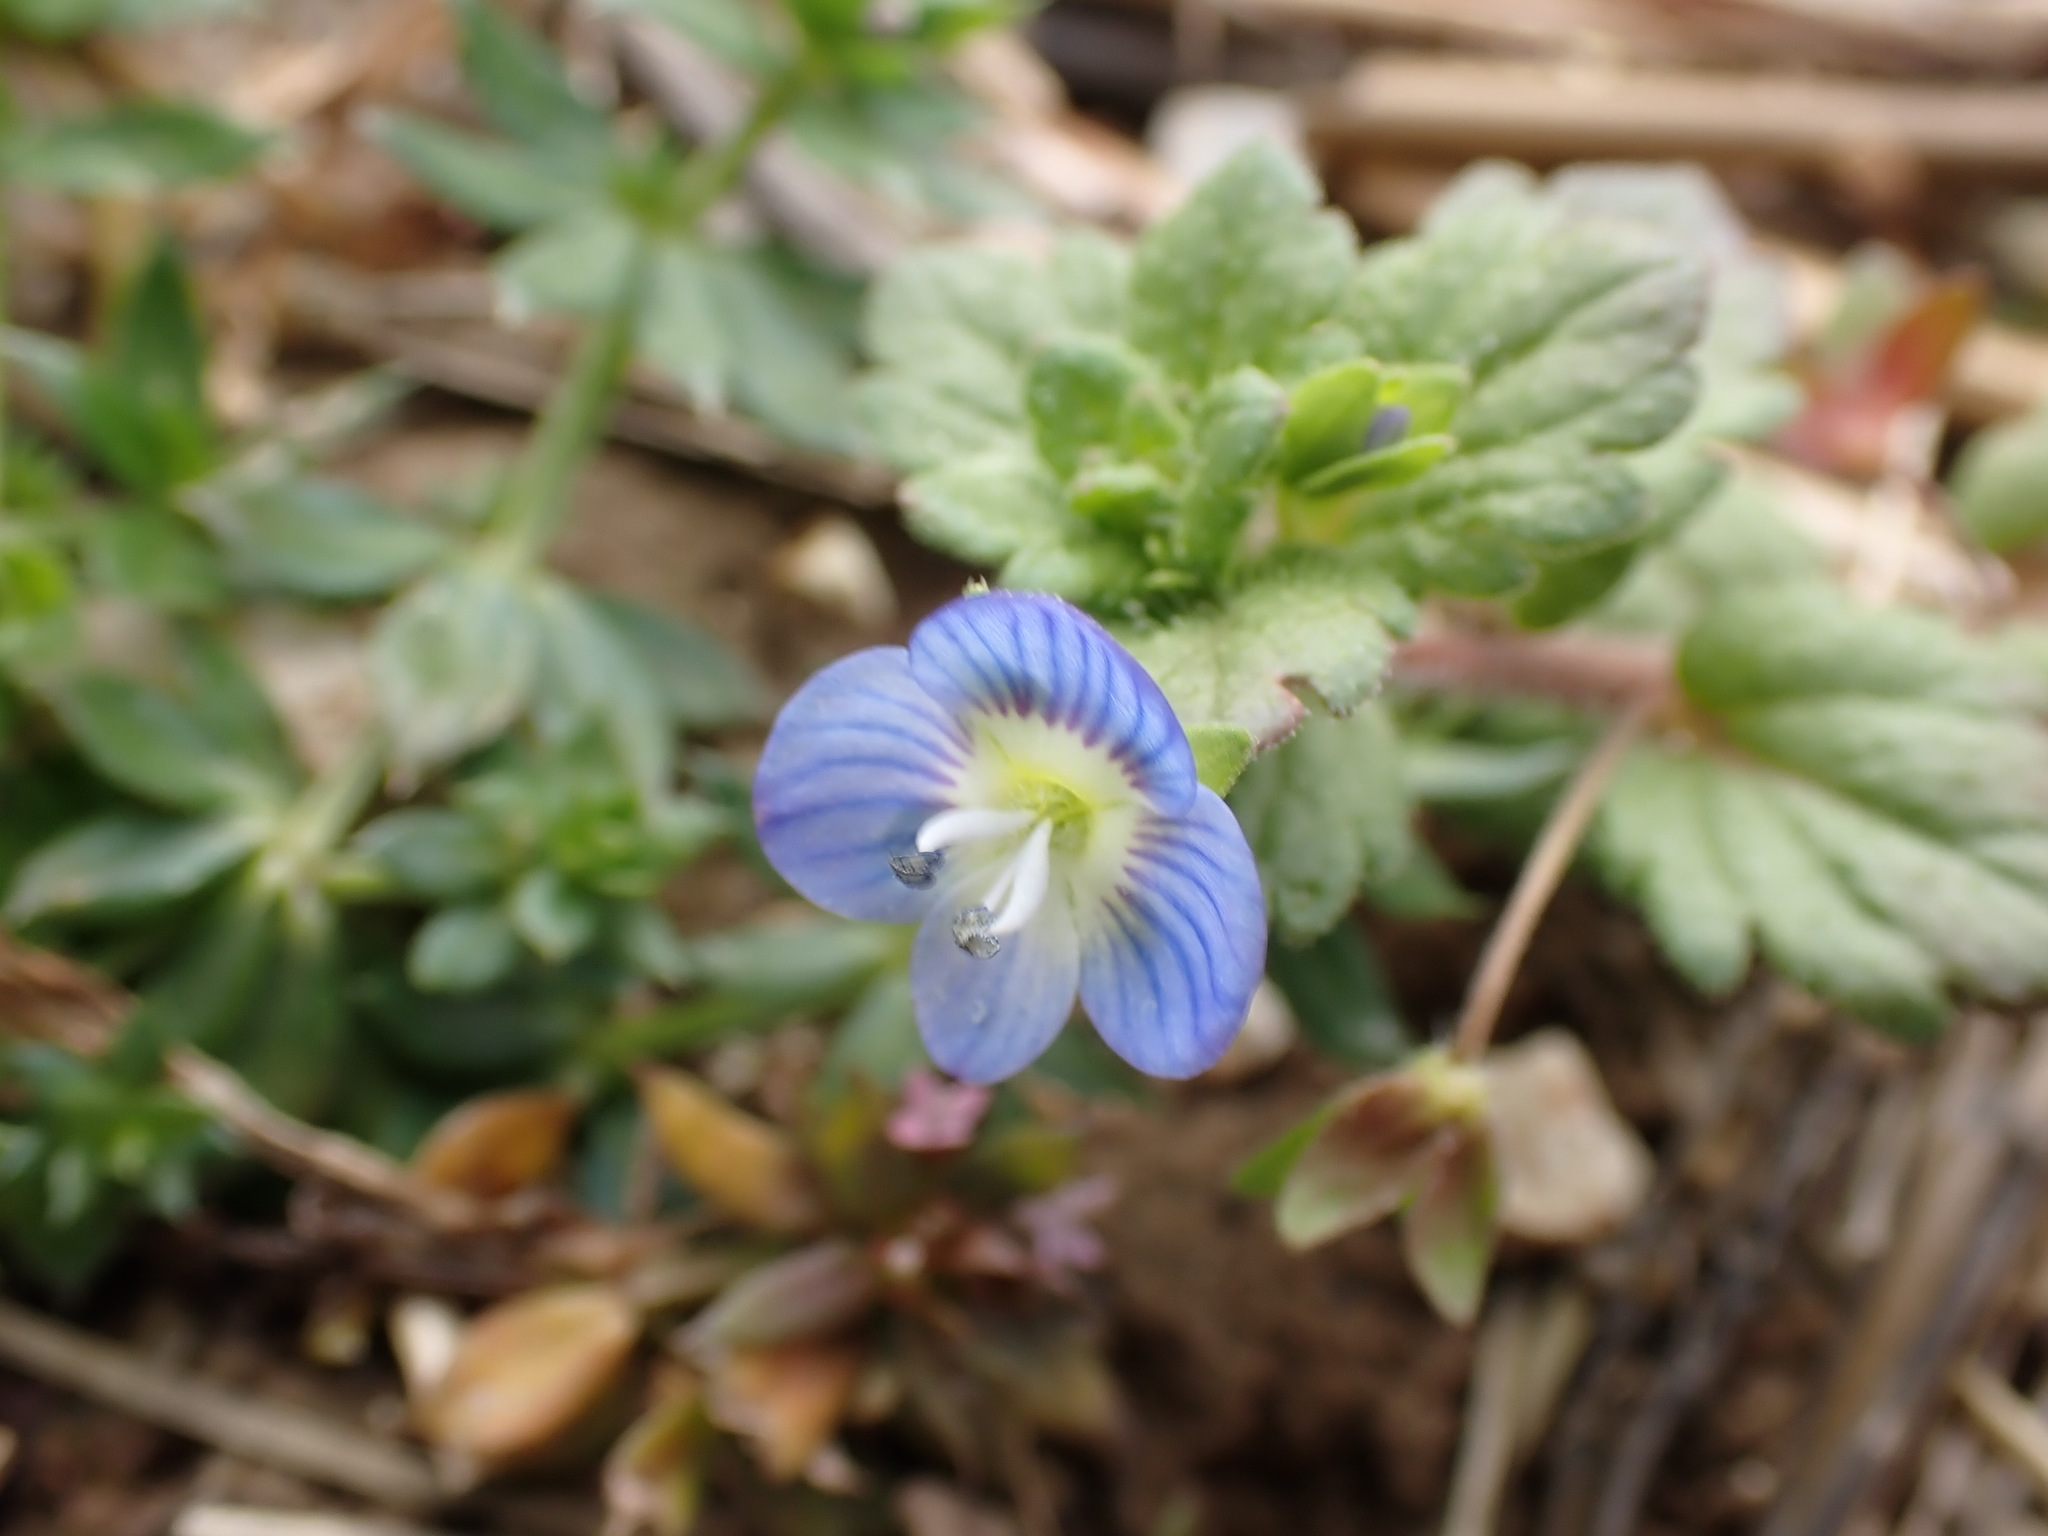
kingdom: Plantae
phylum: Tracheophyta
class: Magnoliopsida
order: Lamiales
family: Plantaginaceae
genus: Veronica
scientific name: Veronica persica
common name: Common field-speedwell
